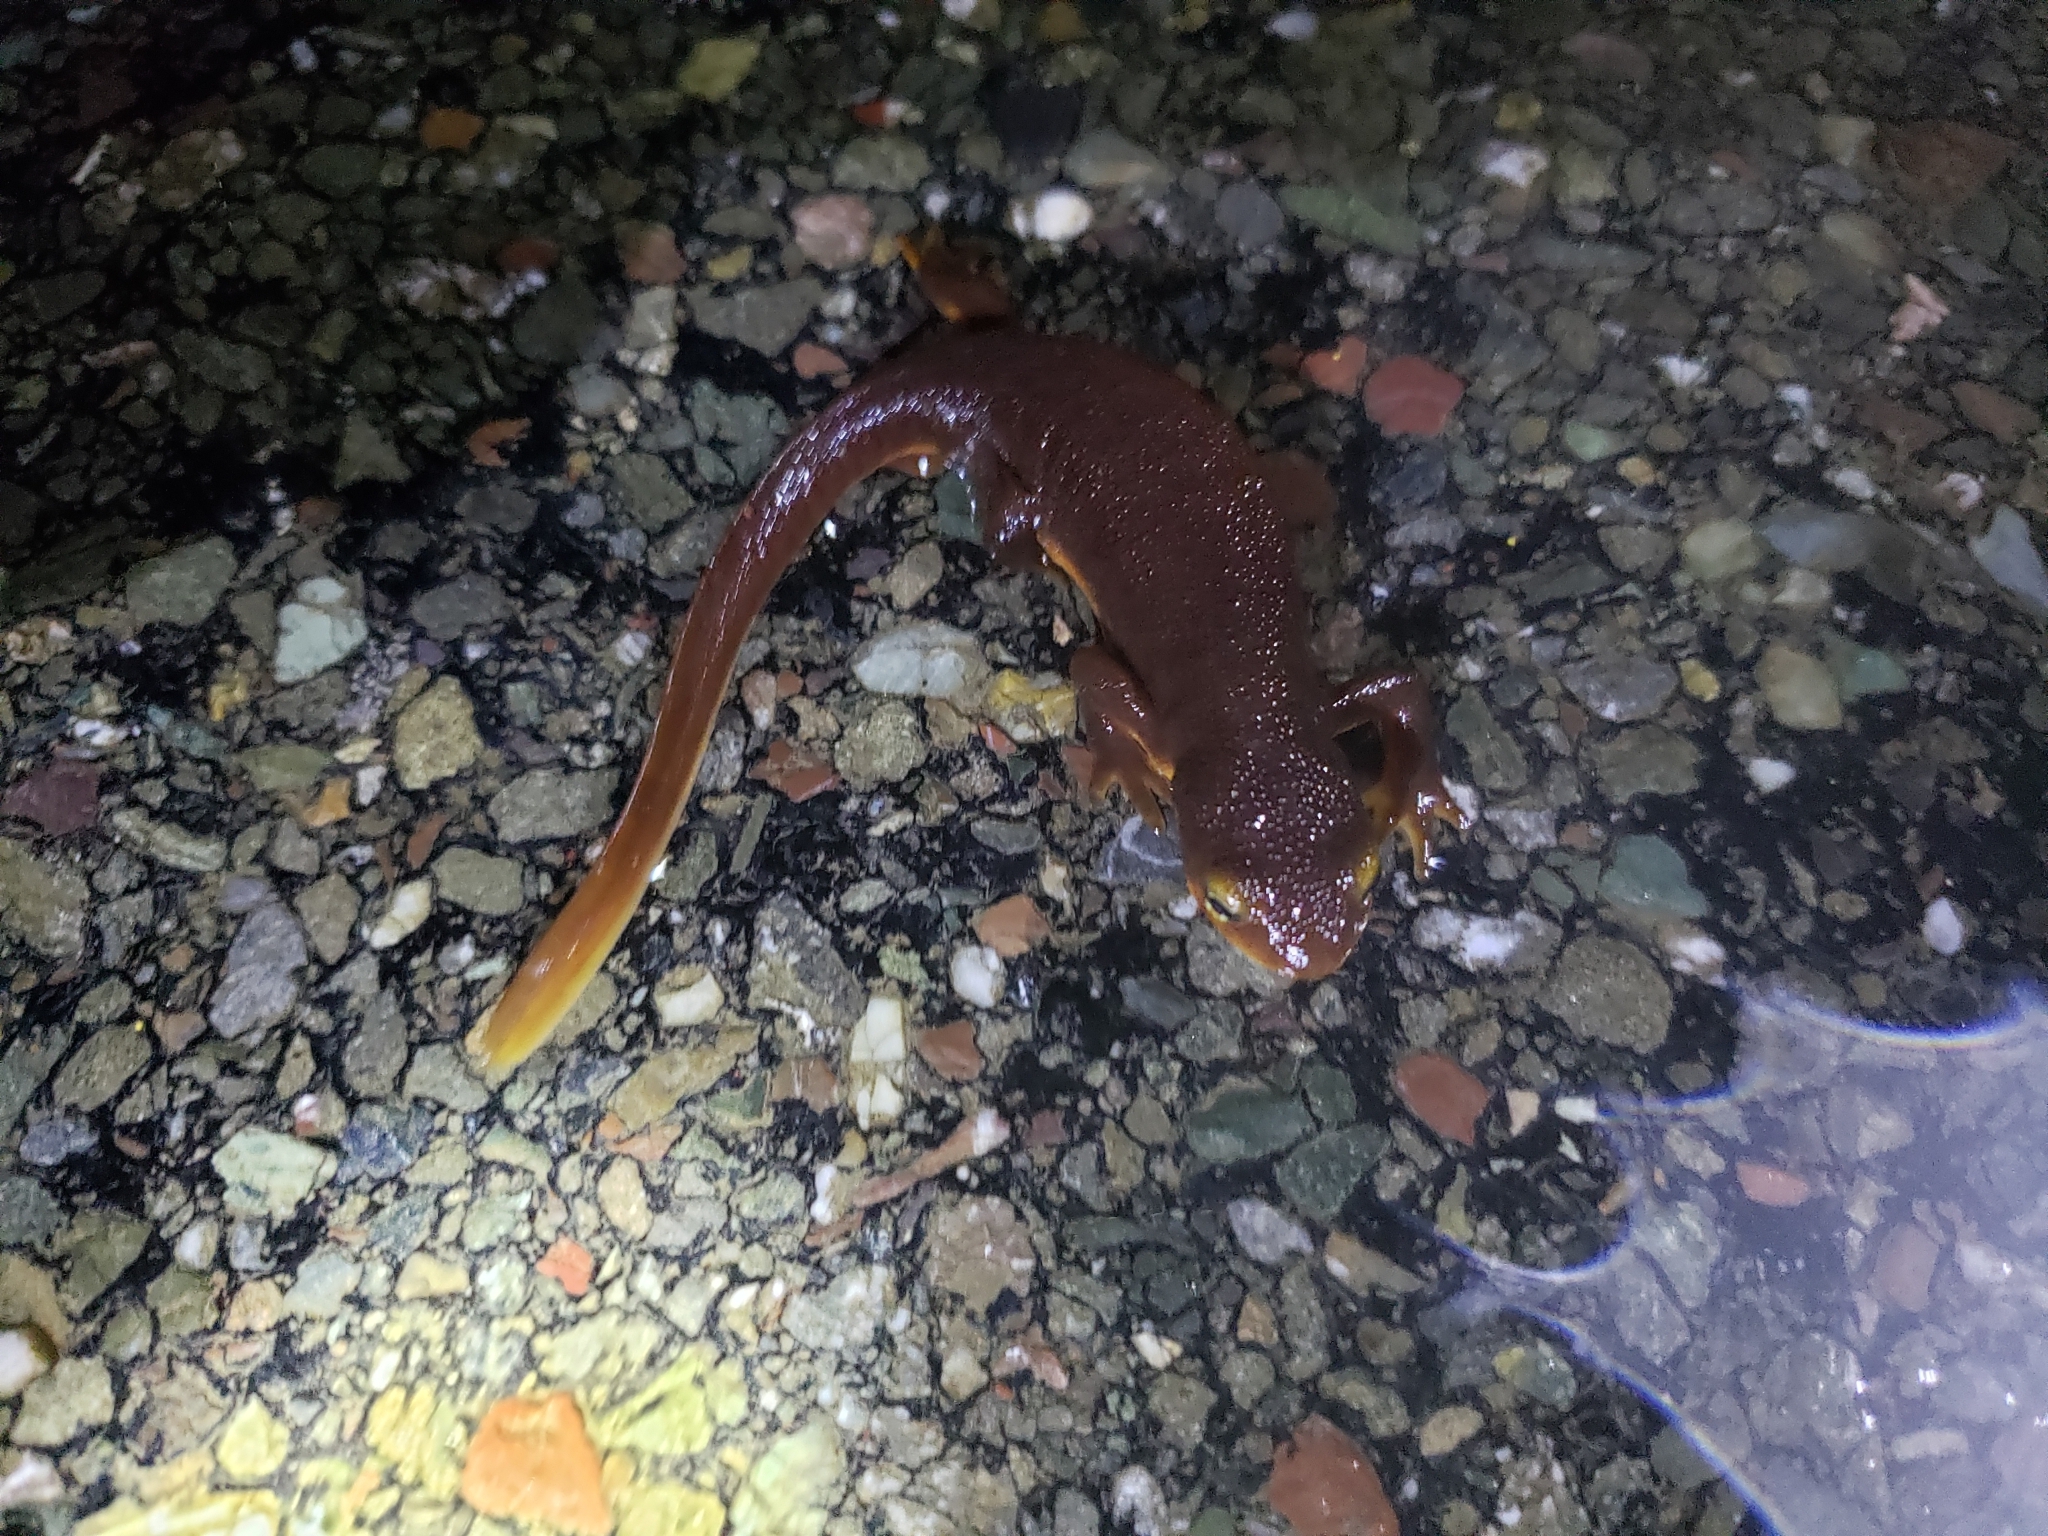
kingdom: Animalia
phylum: Chordata
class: Amphibia
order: Caudata
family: Salamandridae
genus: Taricha
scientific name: Taricha torosa
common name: California newt
